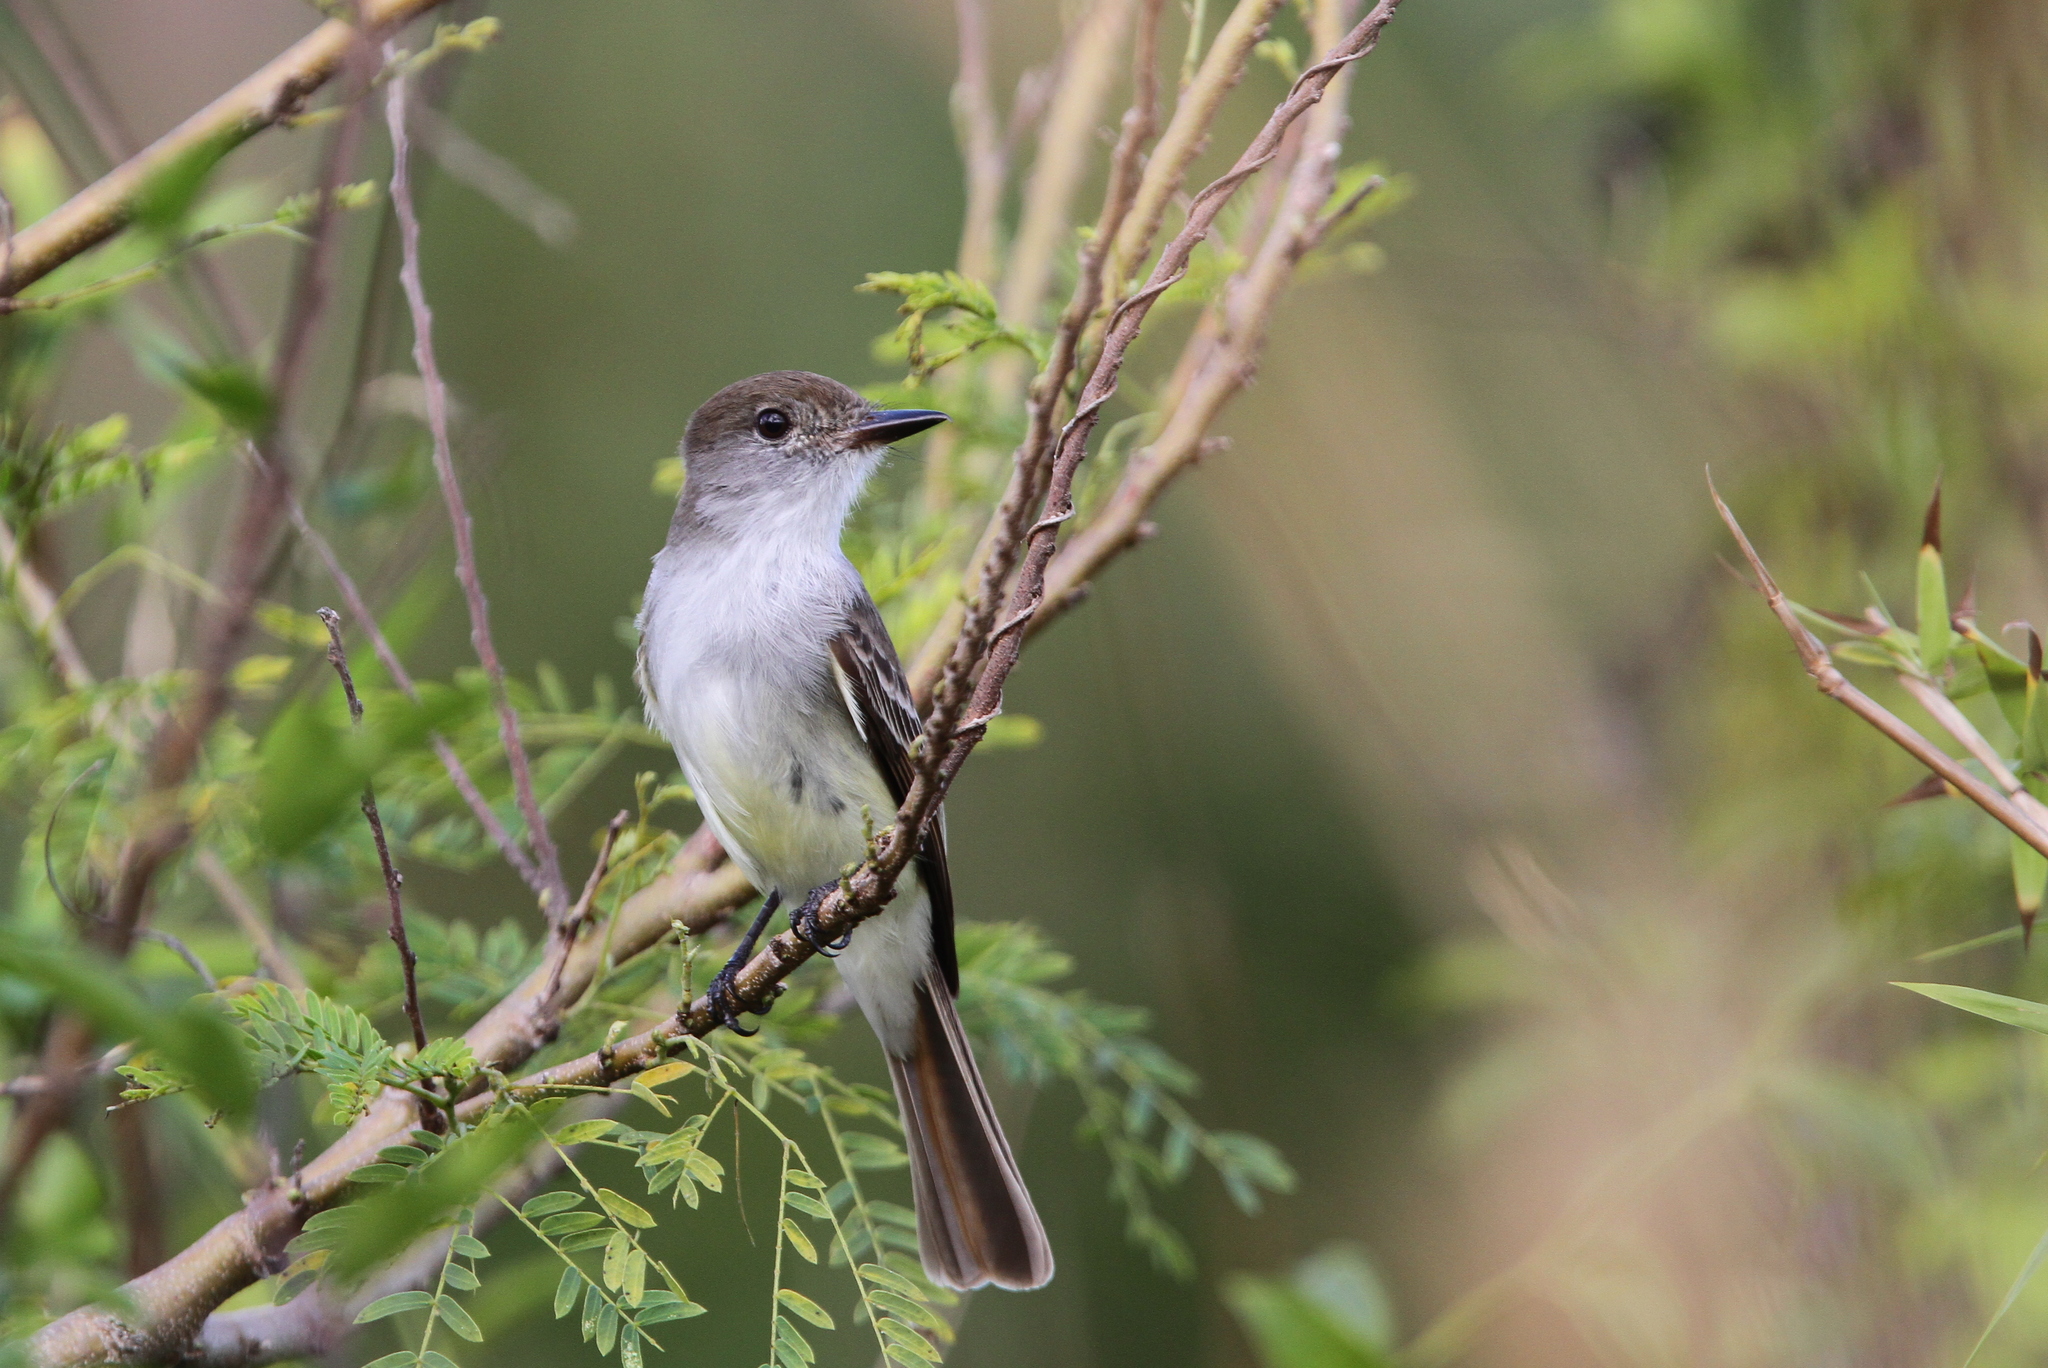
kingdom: Animalia
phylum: Chordata
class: Aves
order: Passeriformes
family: Tyrannidae
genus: Myiarchus
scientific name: Myiarchus sagrae
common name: La sagra's flycatcher
